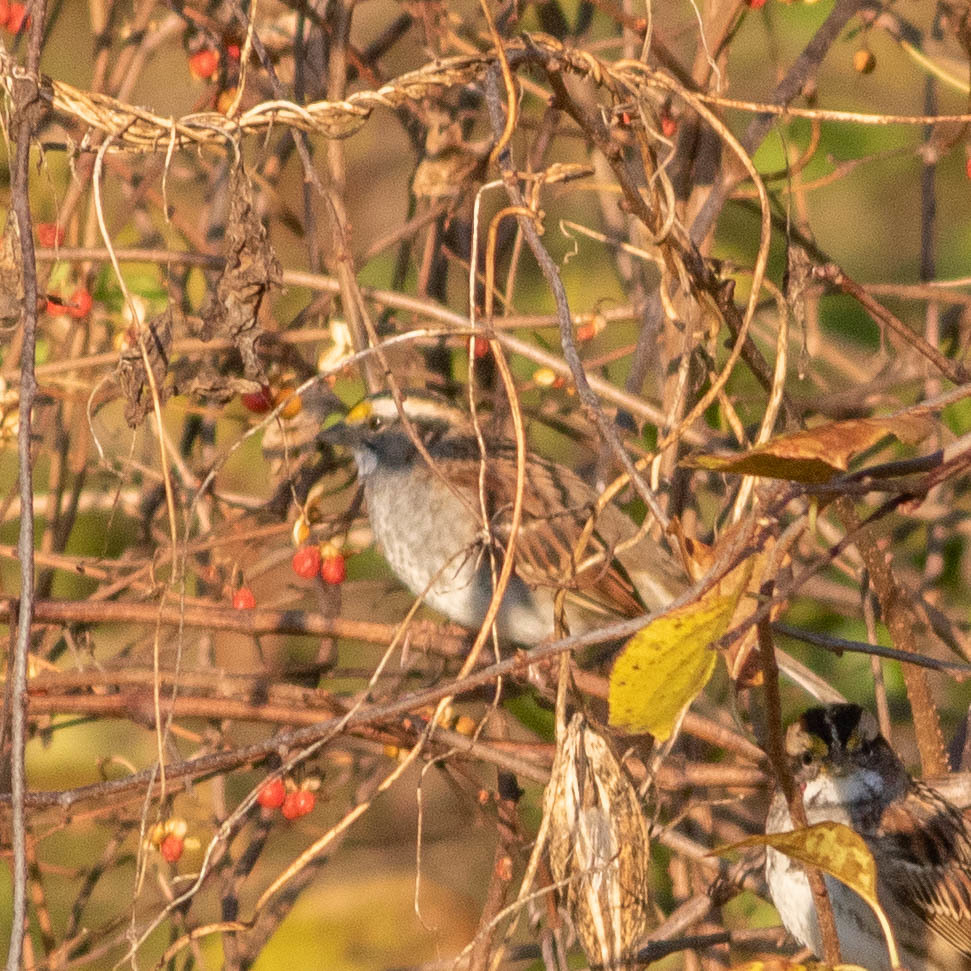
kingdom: Animalia
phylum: Chordata
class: Aves
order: Passeriformes
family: Passerellidae
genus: Zonotrichia
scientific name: Zonotrichia albicollis
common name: White-throated sparrow
